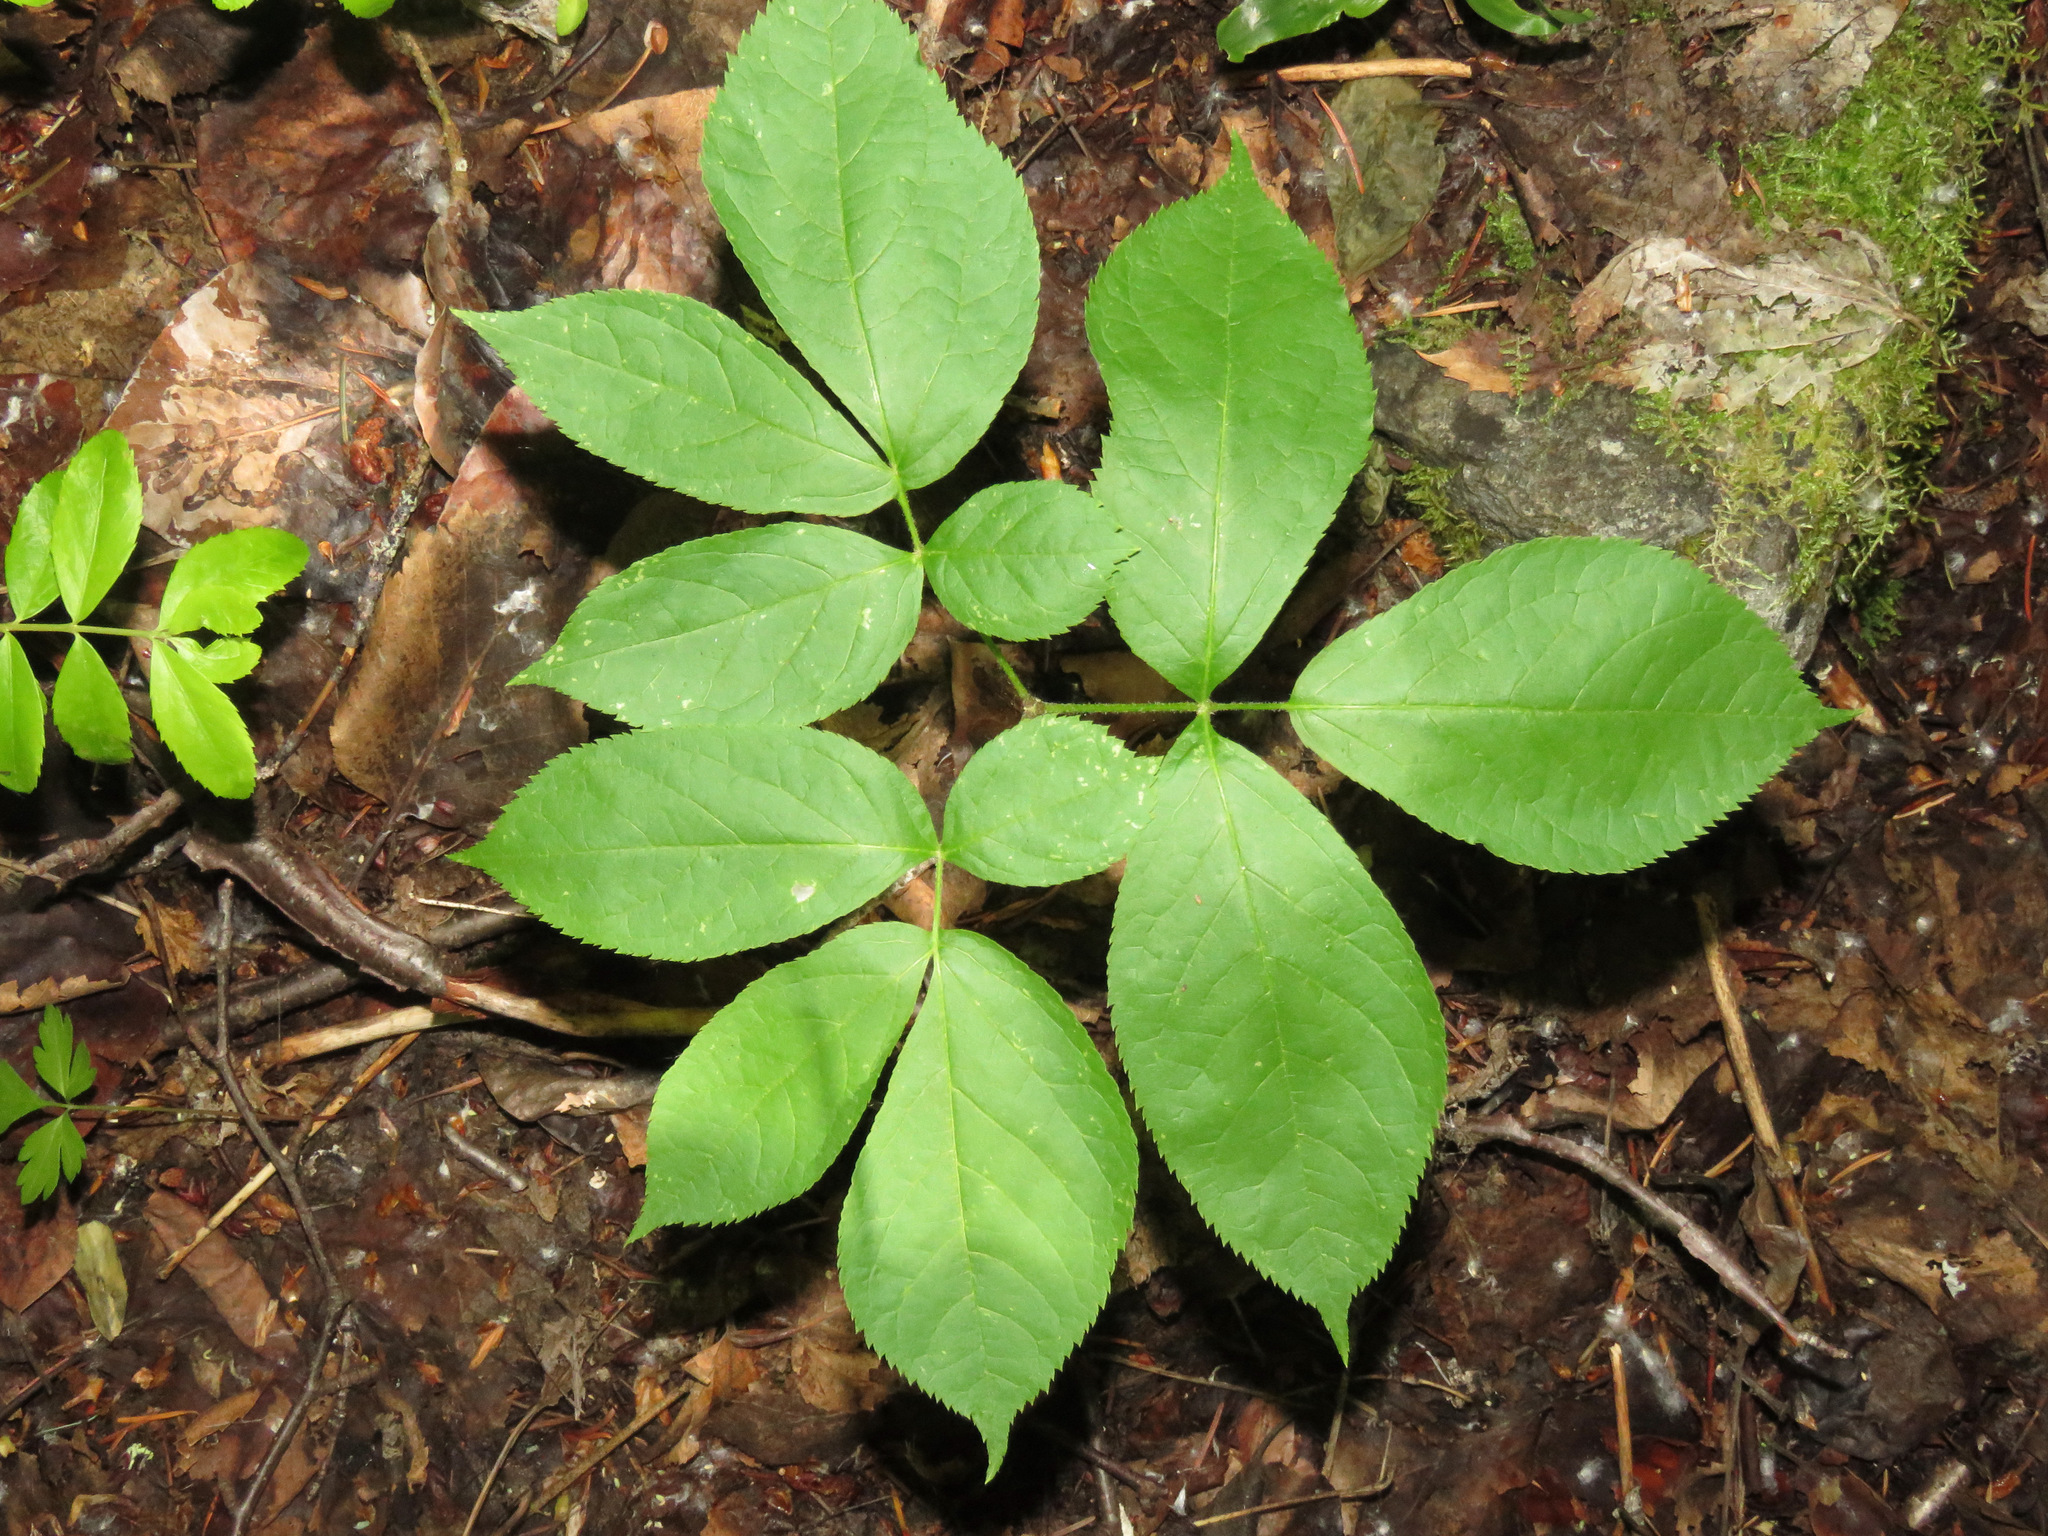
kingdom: Plantae
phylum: Tracheophyta
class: Magnoliopsida
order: Apiales
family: Araliaceae
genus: Aralia
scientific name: Aralia nudicaulis
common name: Wild sarsaparilla
